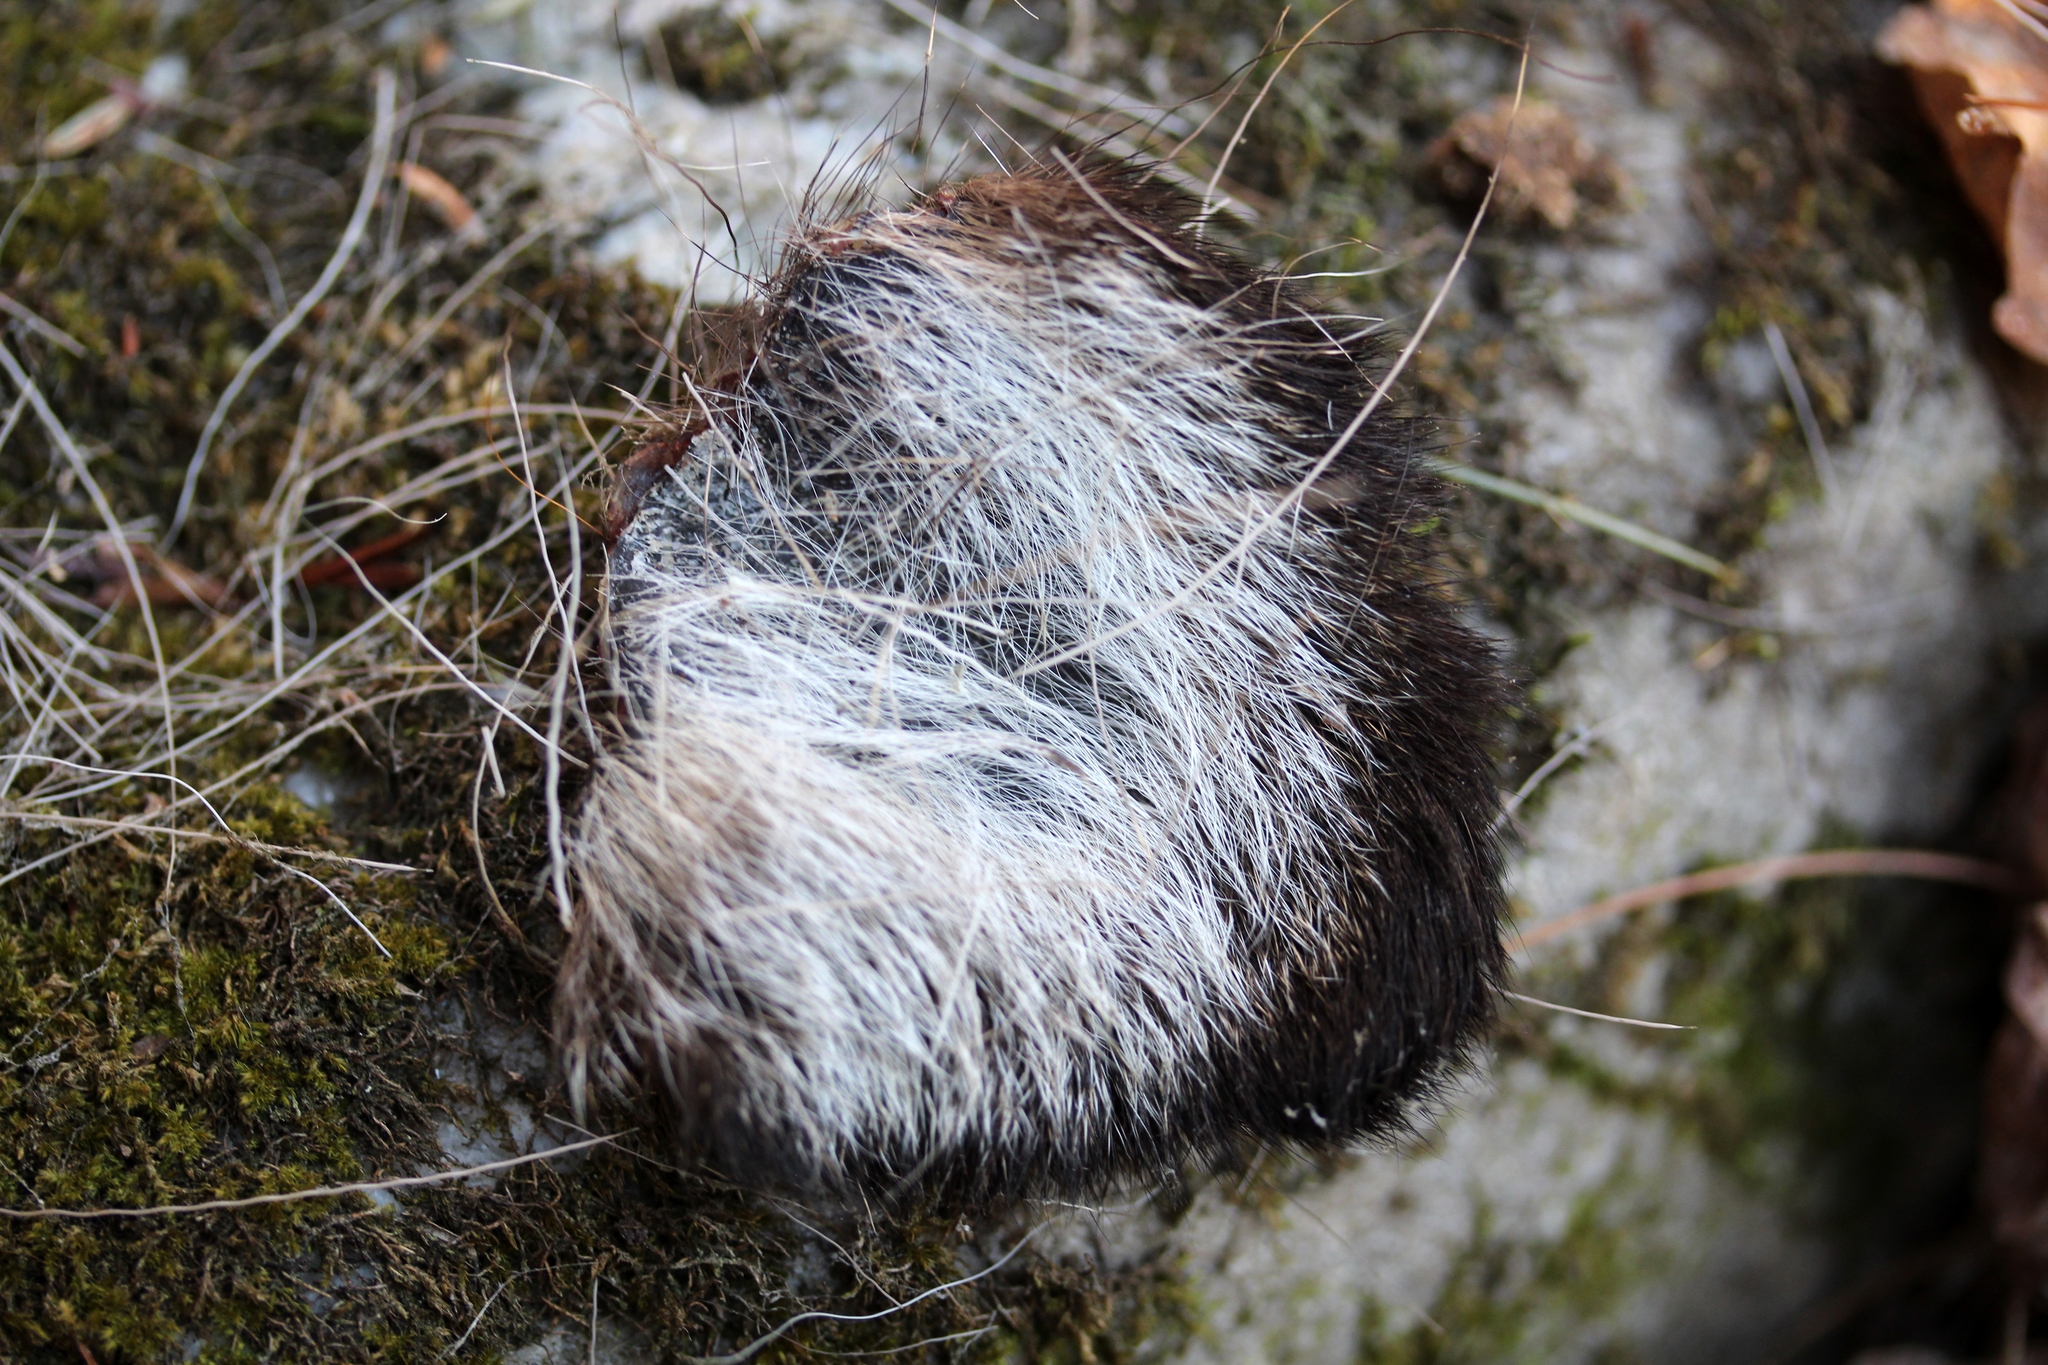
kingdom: Animalia
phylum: Chordata
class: Mammalia
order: Artiodactyla
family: Cervidae
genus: Odocoileus
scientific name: Odocoileus virginianus
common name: White-tailed deer
